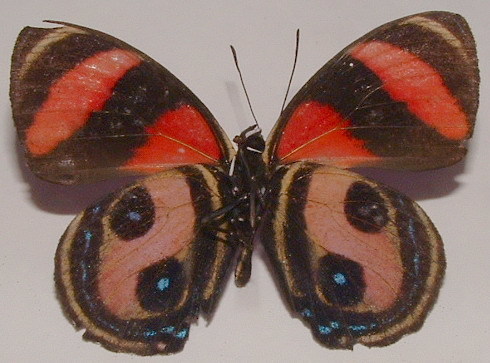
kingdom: Animalia
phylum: Arthropoda
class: Insecta
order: Lepidoptera
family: Nymphalidae
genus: Catagramma
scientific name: Catagramma Callicore pitheas
